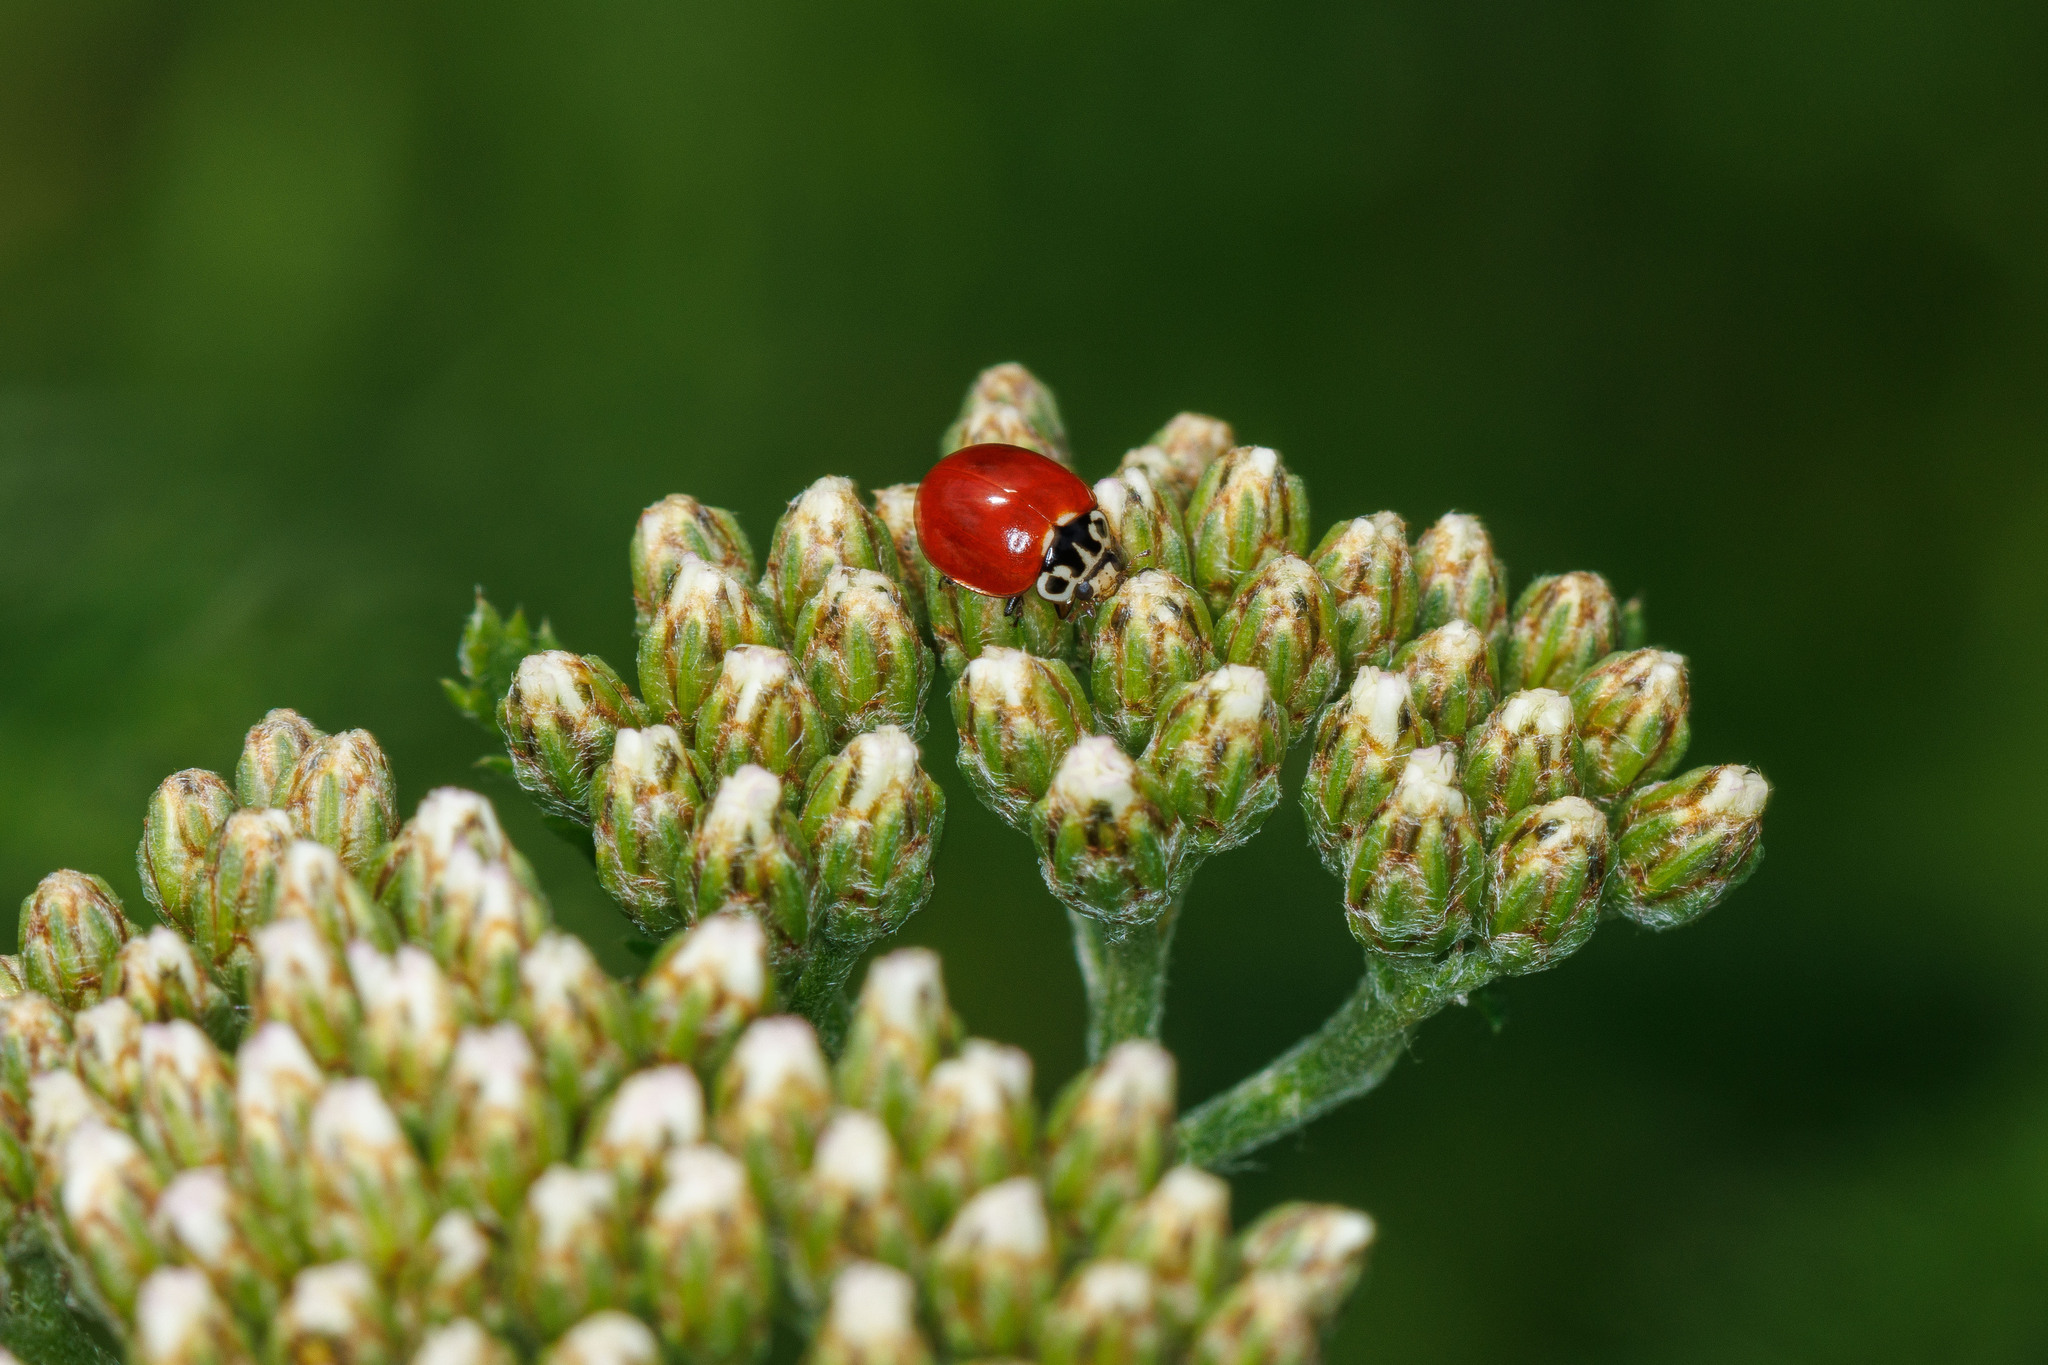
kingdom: Animalia
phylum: Arthropoda
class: Insecta
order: Coleoptera
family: Coccinellidae
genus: Cycloneda
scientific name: Cycloneda polita
